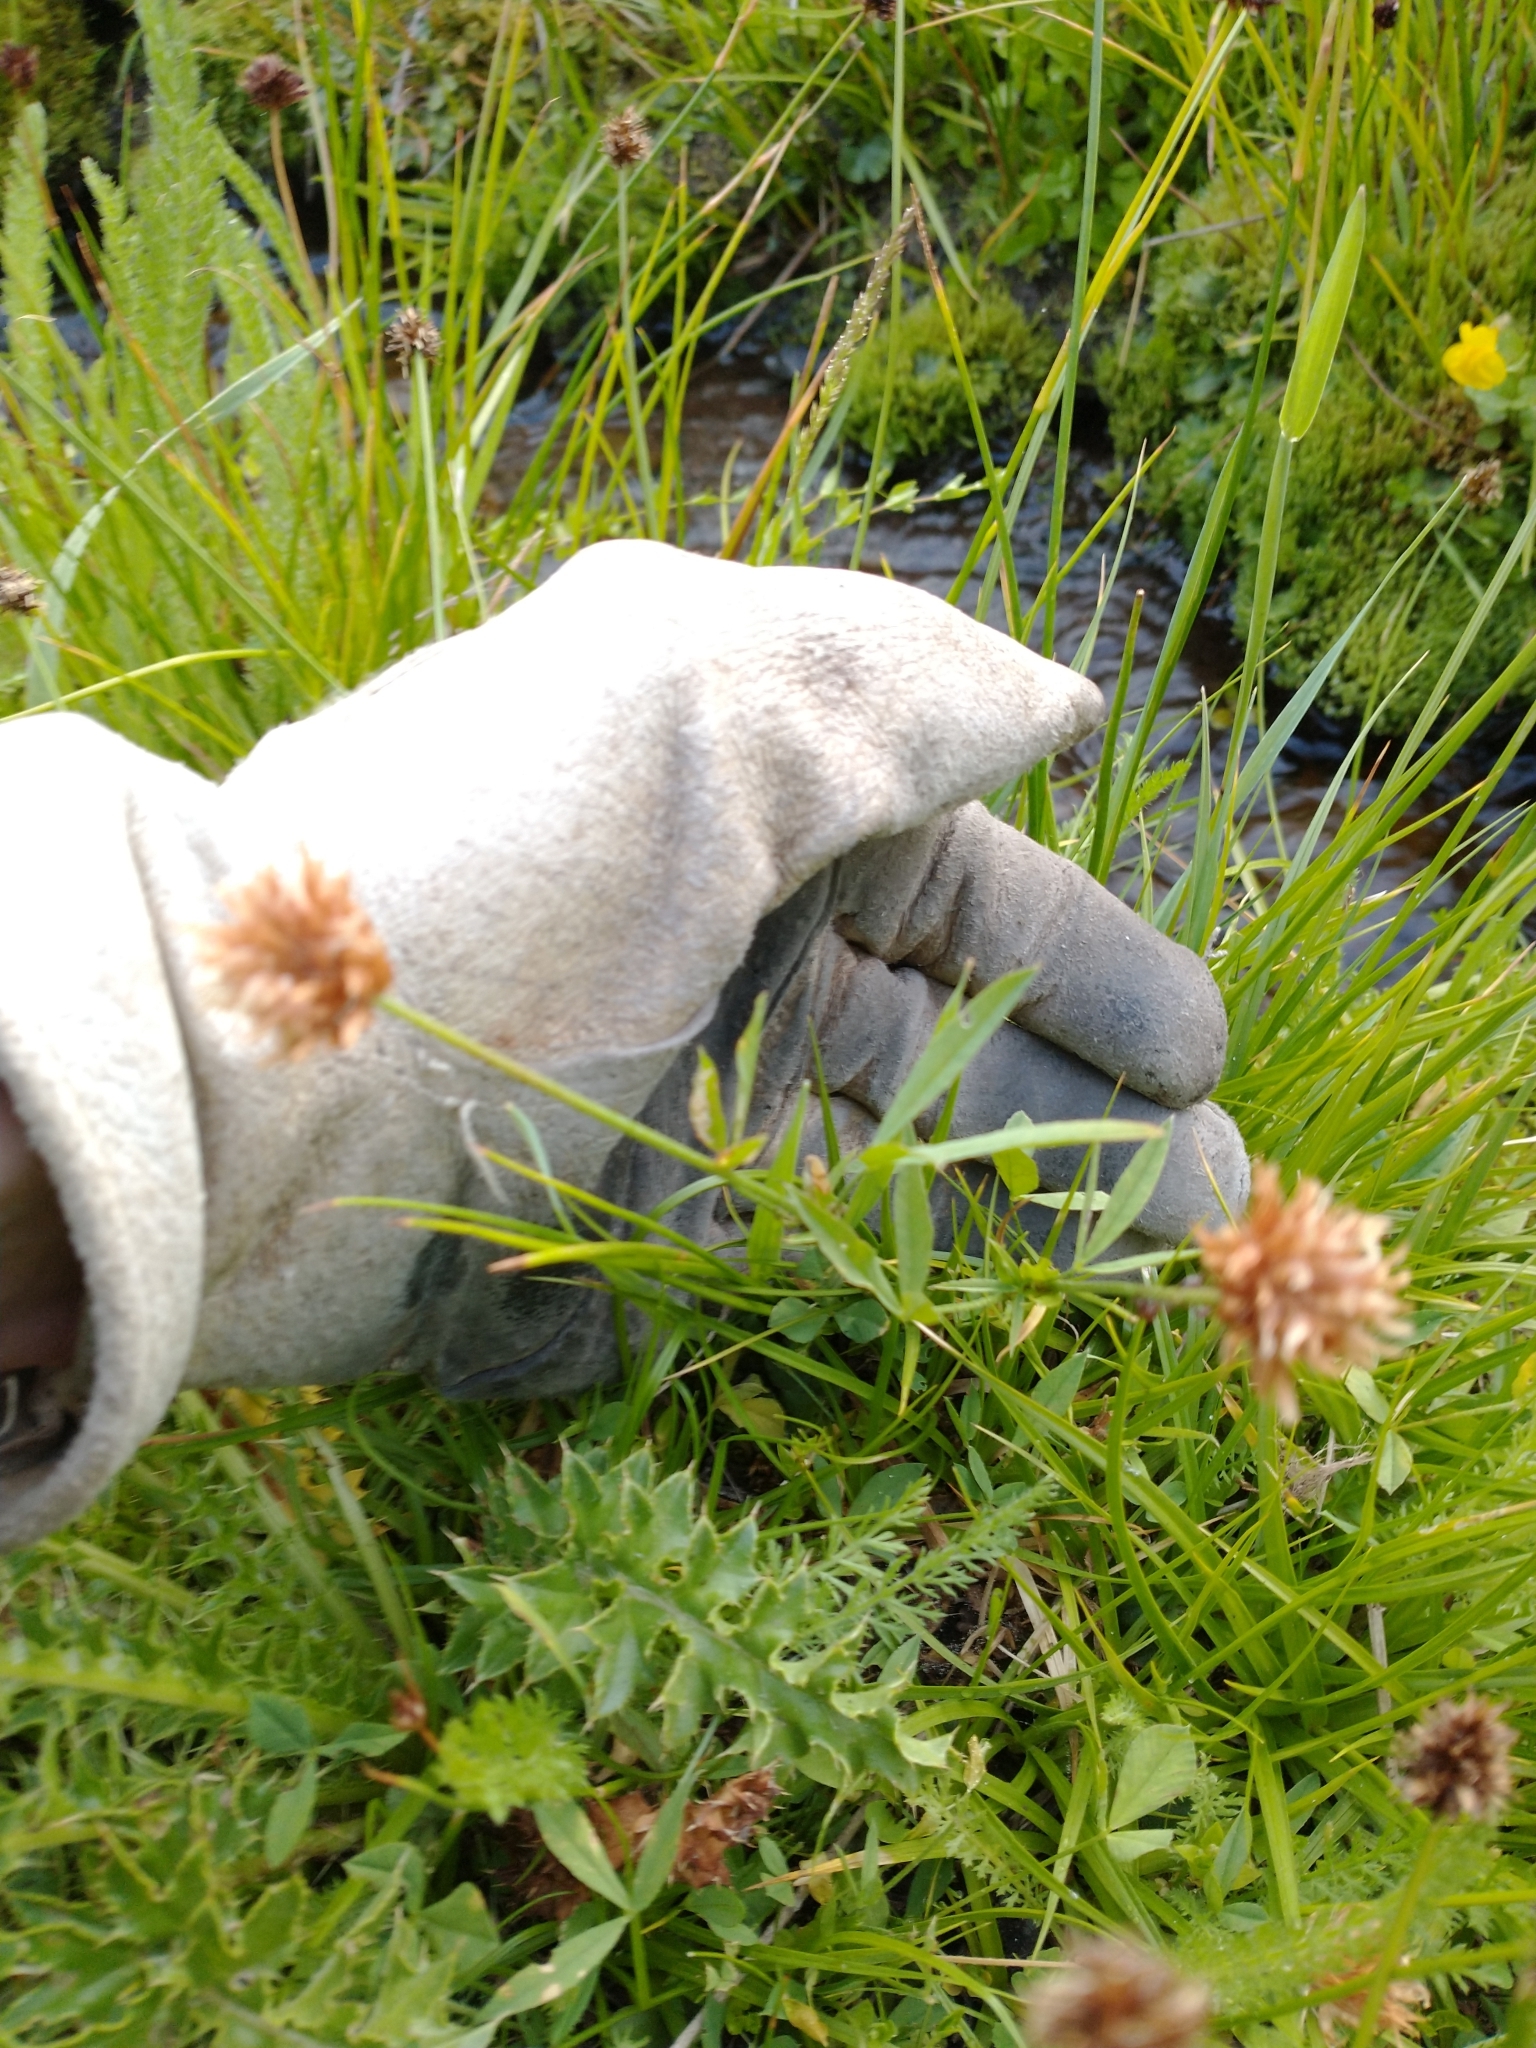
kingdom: Plantae
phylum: Tracheophyta
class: Magnoliopsida
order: Fabales
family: Fabaceae
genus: Trifolium
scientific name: Trifolium longipes
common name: Long-stalk clover
